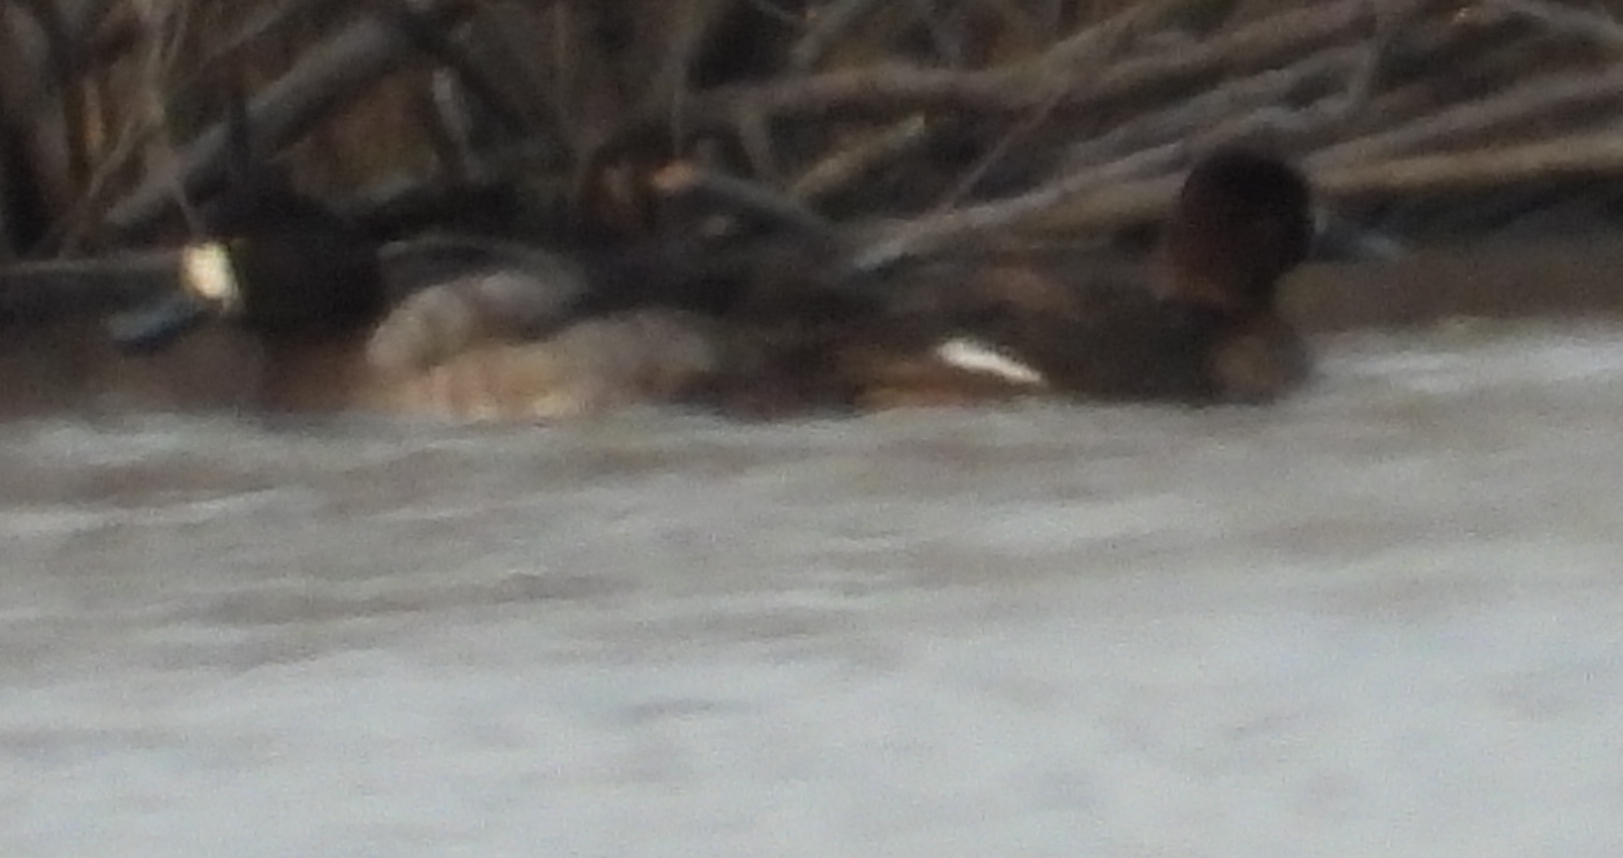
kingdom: Animalia
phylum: Chordata
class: Aves
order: Anseriformes
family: Anatidae
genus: Melanitta
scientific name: Melanitta deglandi
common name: White-winged scoter
